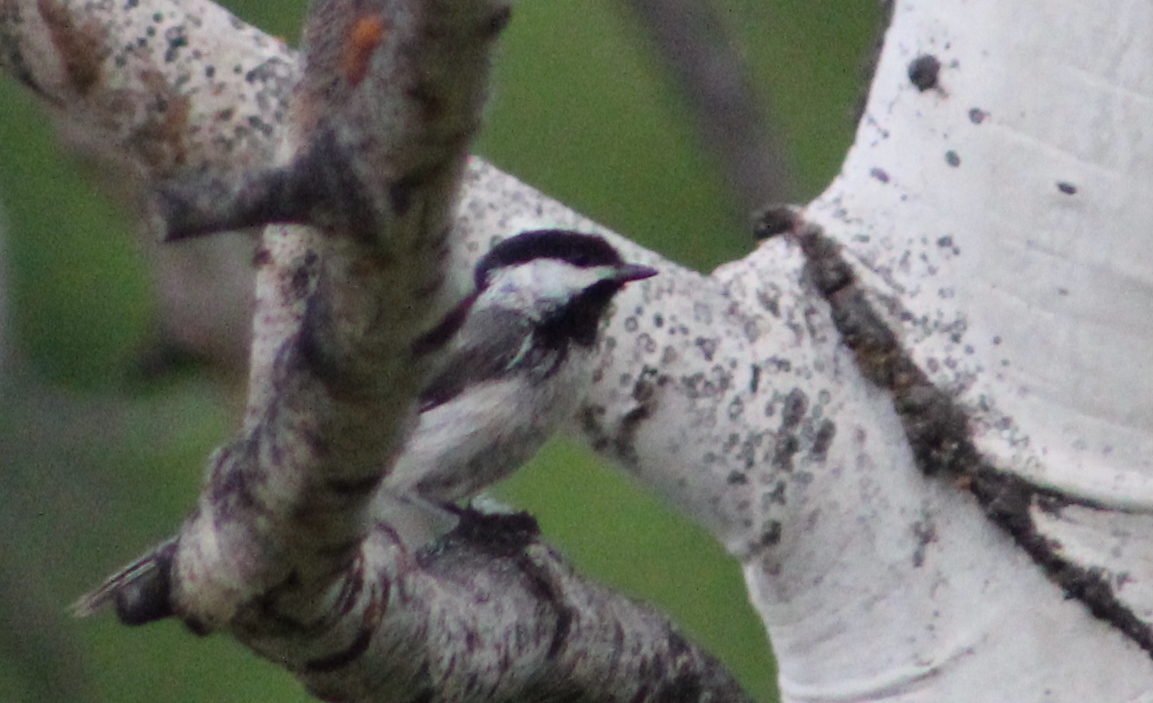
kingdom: Animalia
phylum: Chordata
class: Aves
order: Passeriformes
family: Paridae
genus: Poecile
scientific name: Poecile atricapillus
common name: Black-capped chickadee
